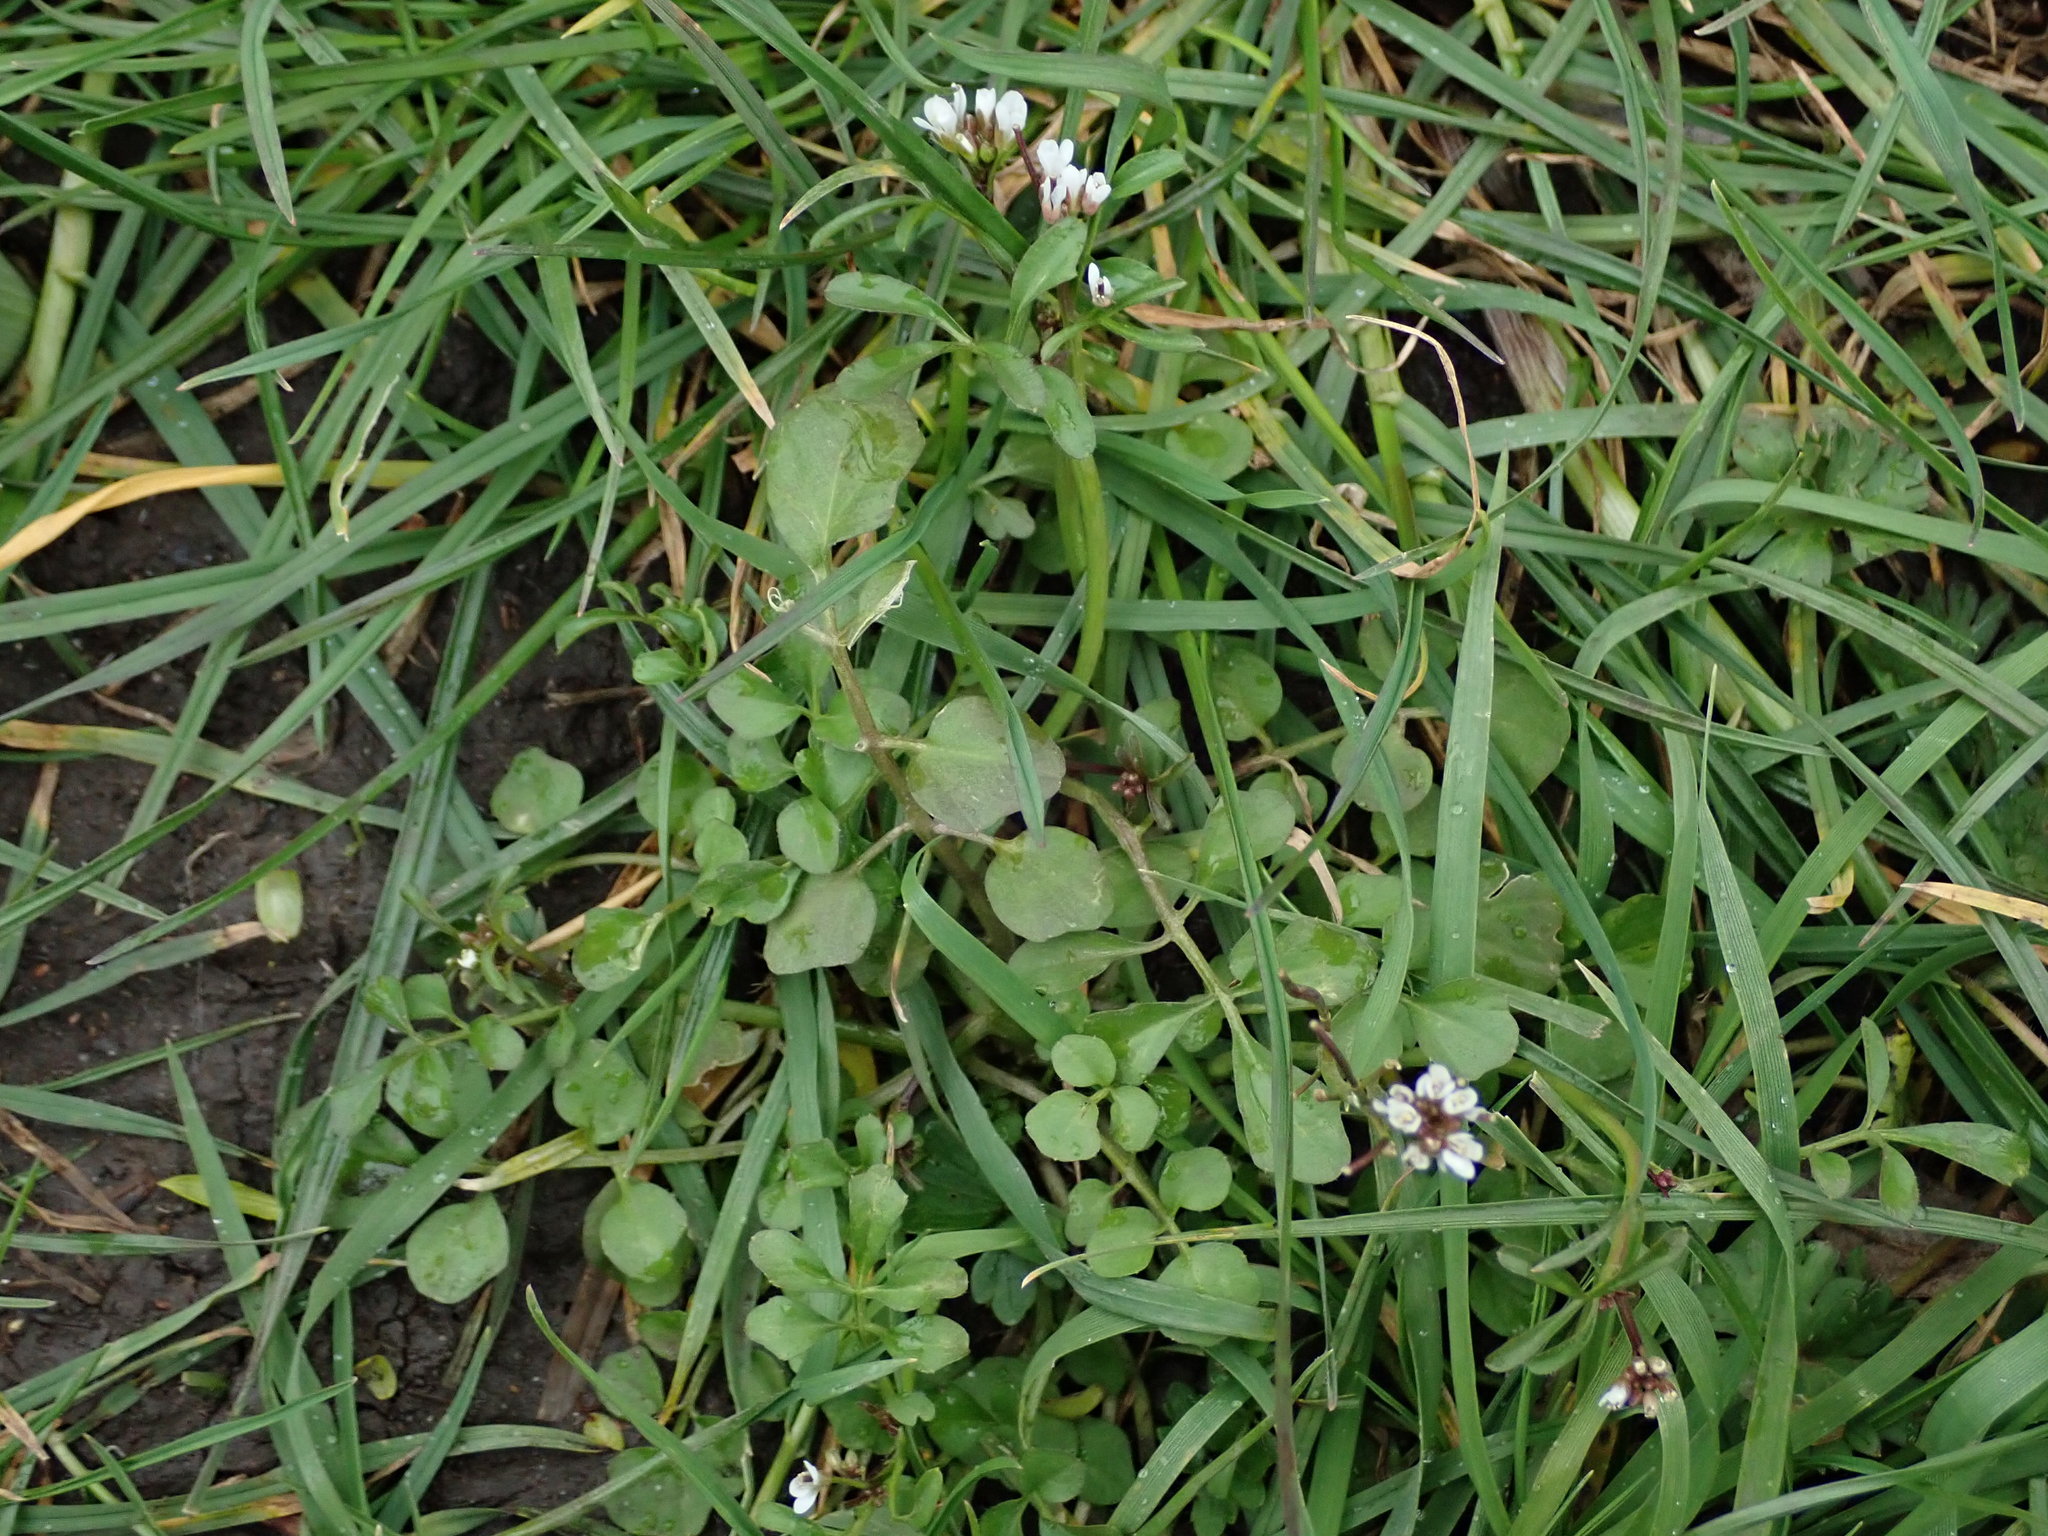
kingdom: Plantae
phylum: Tracheophyta
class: Magnoliopsida
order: Brassicales
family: Brassicaceae
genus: Cardamine
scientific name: Cardamine hirsuta
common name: Hairy bittercress
